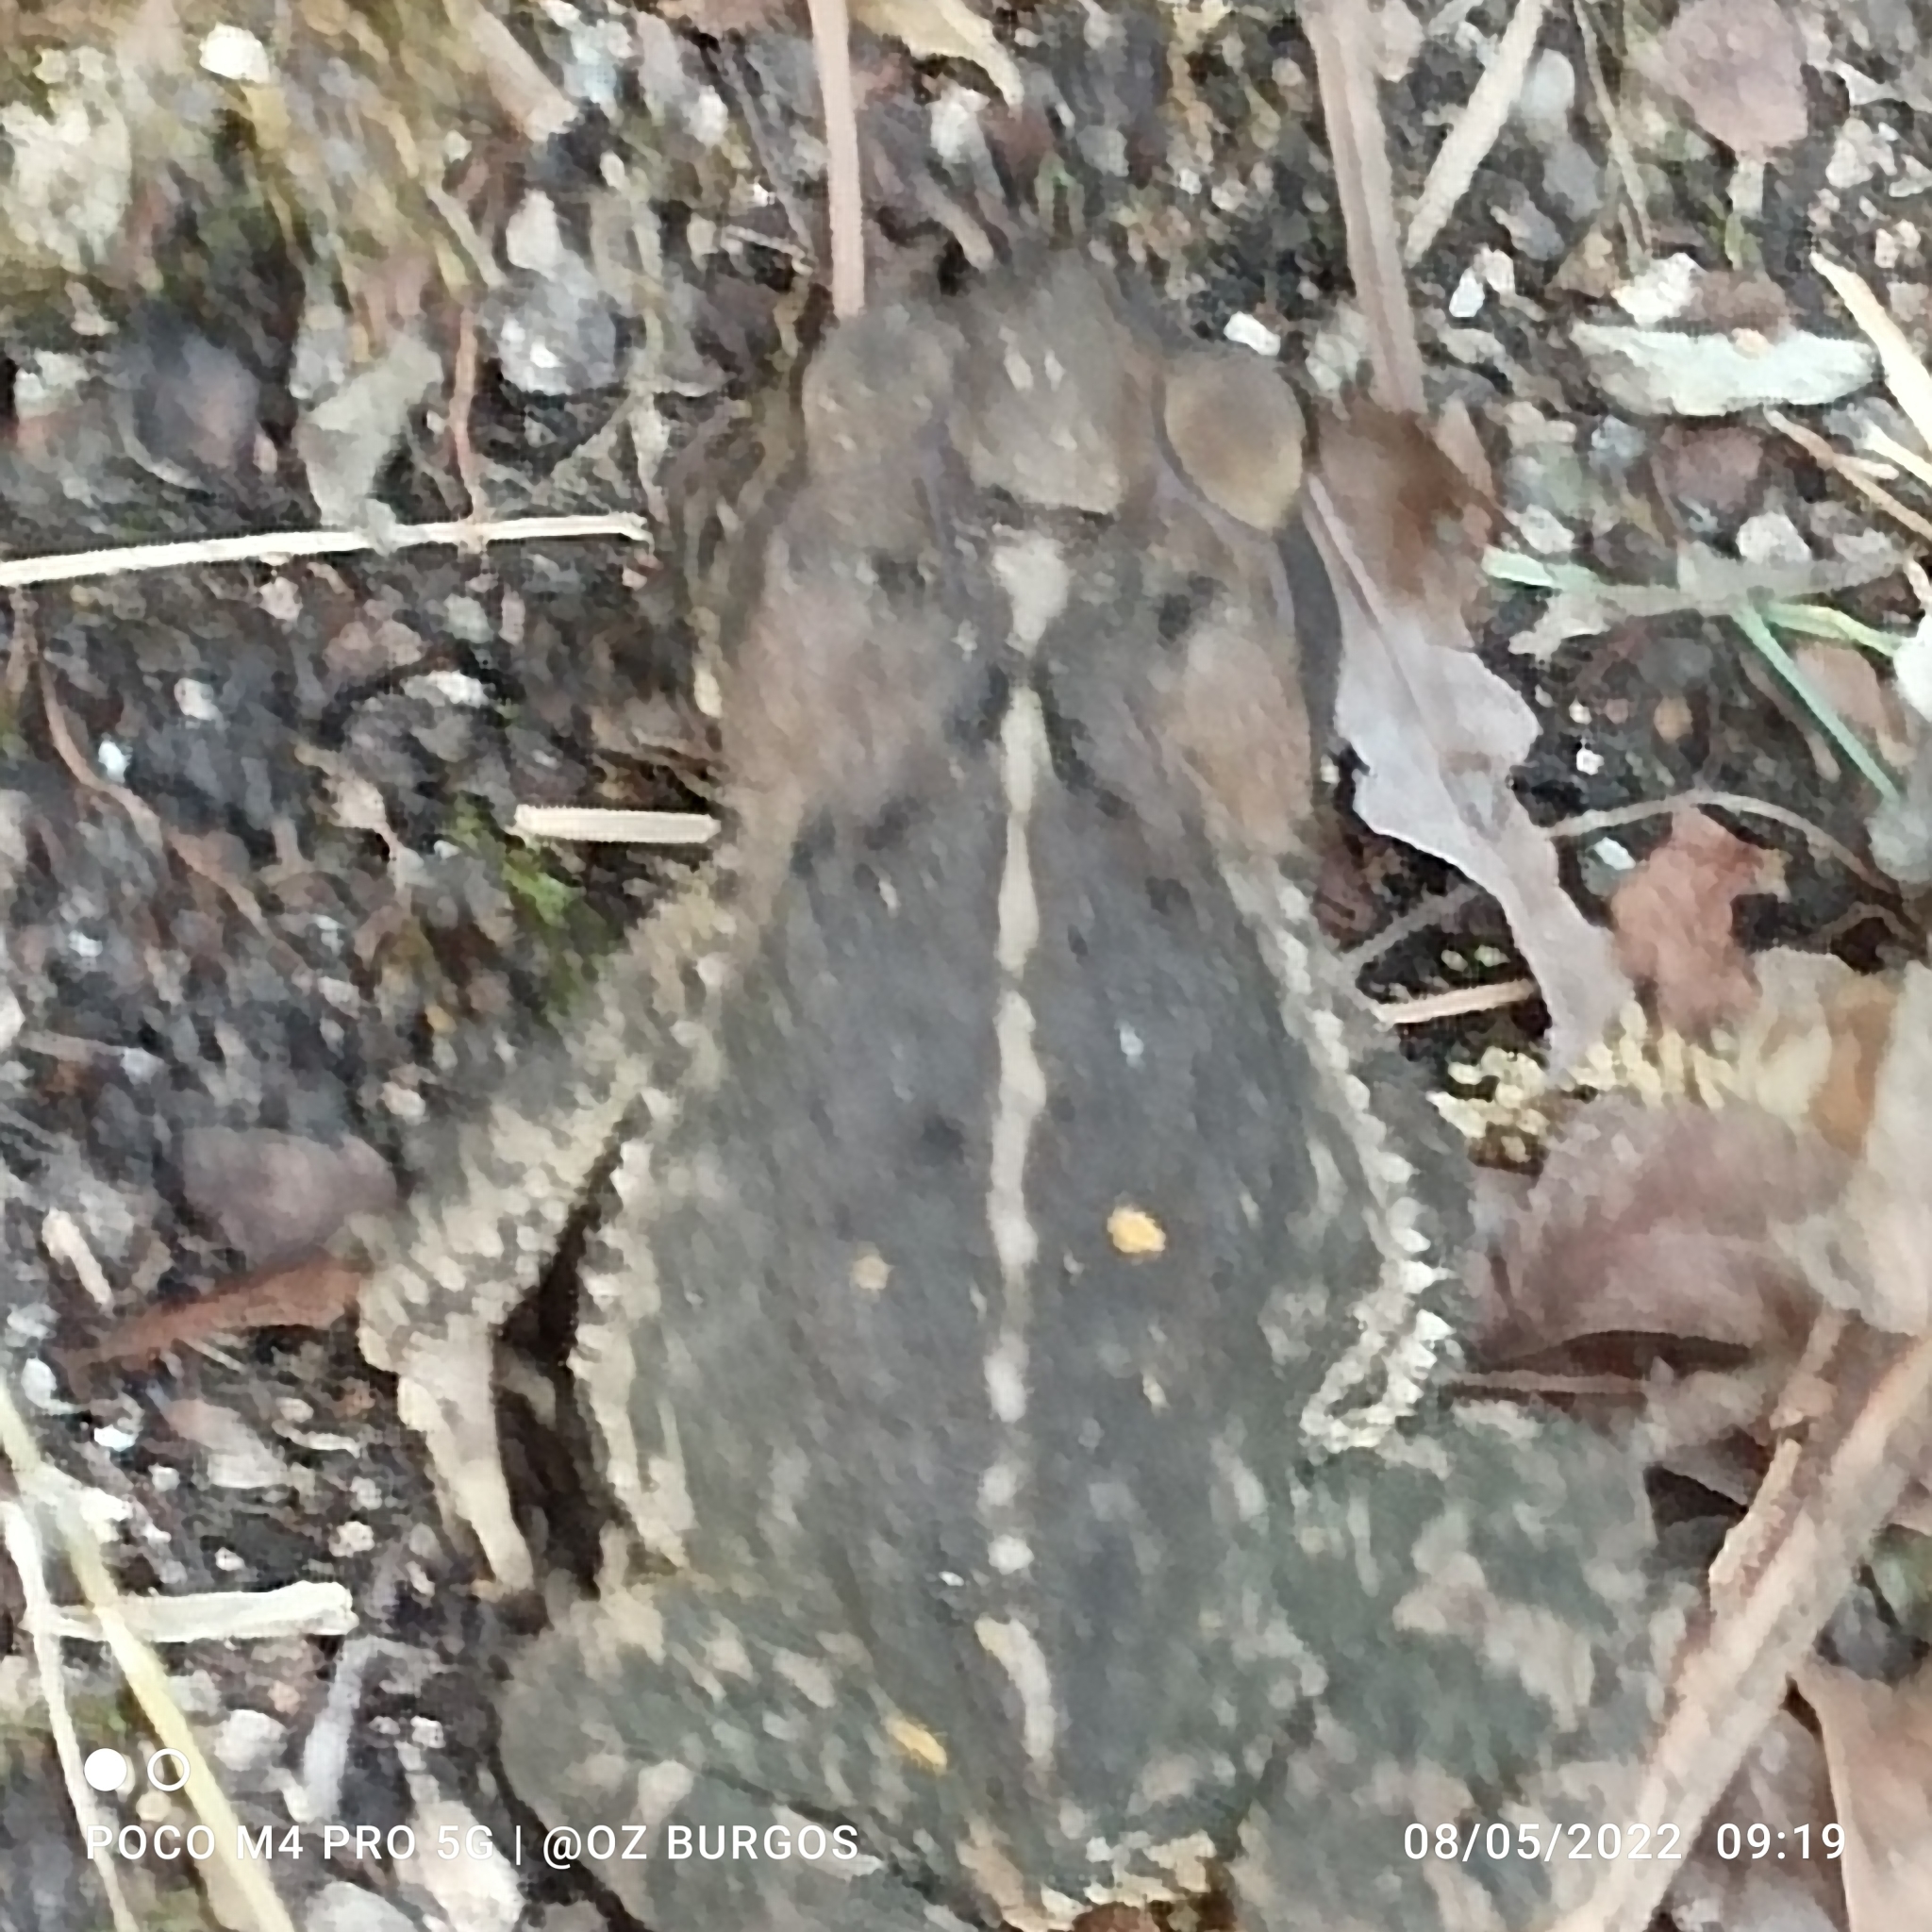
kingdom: Animalia
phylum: Chordata
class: Amphibia
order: Anura
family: Bufonidae
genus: Incilius
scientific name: Incilius nebulifer
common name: Gulf coast toad
